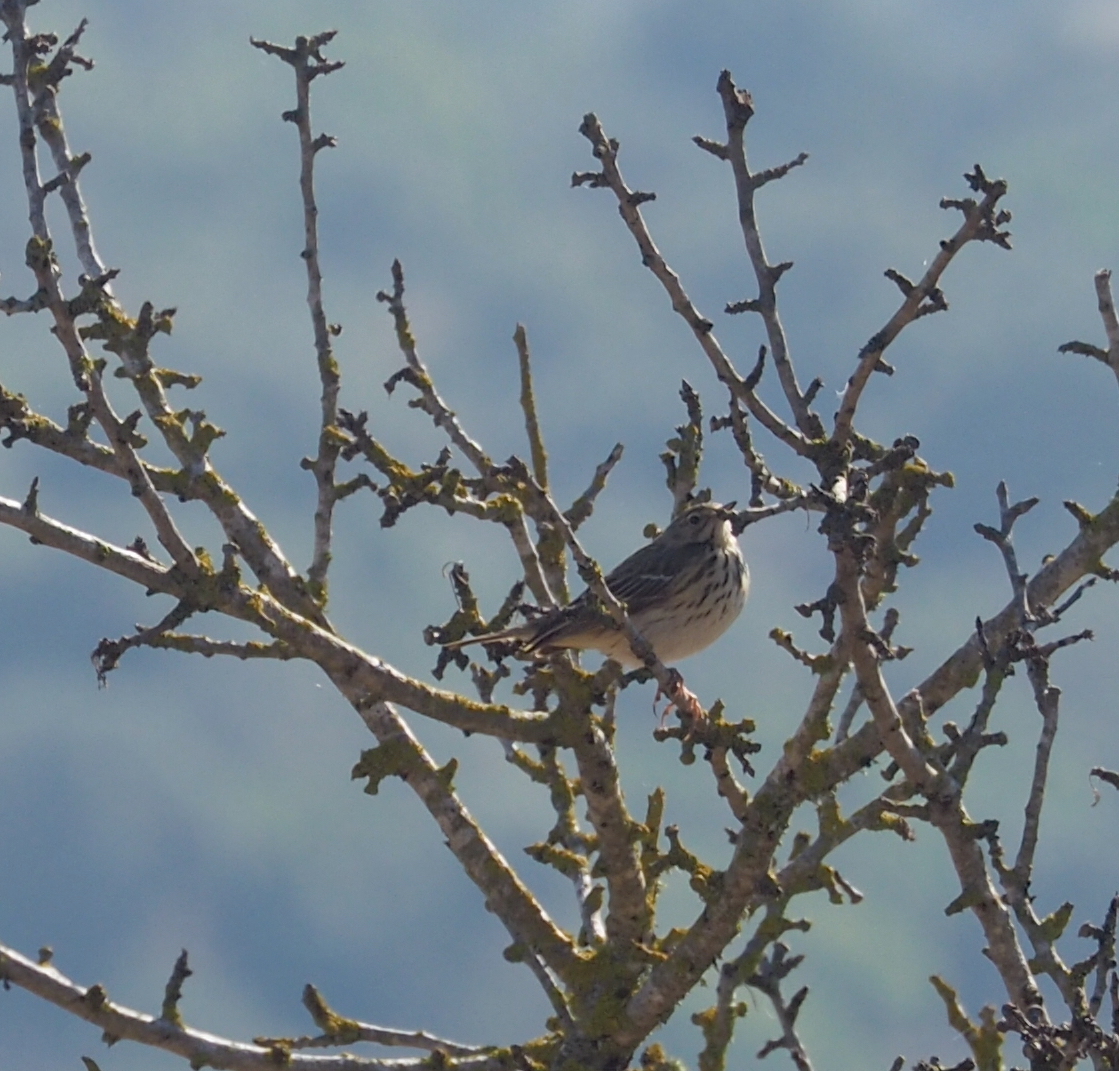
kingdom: Animalia
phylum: Chordata
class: Aves
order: Passeriformes
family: Motacillidae
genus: Anthus
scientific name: Anthus trivialis
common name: Tree pipit
